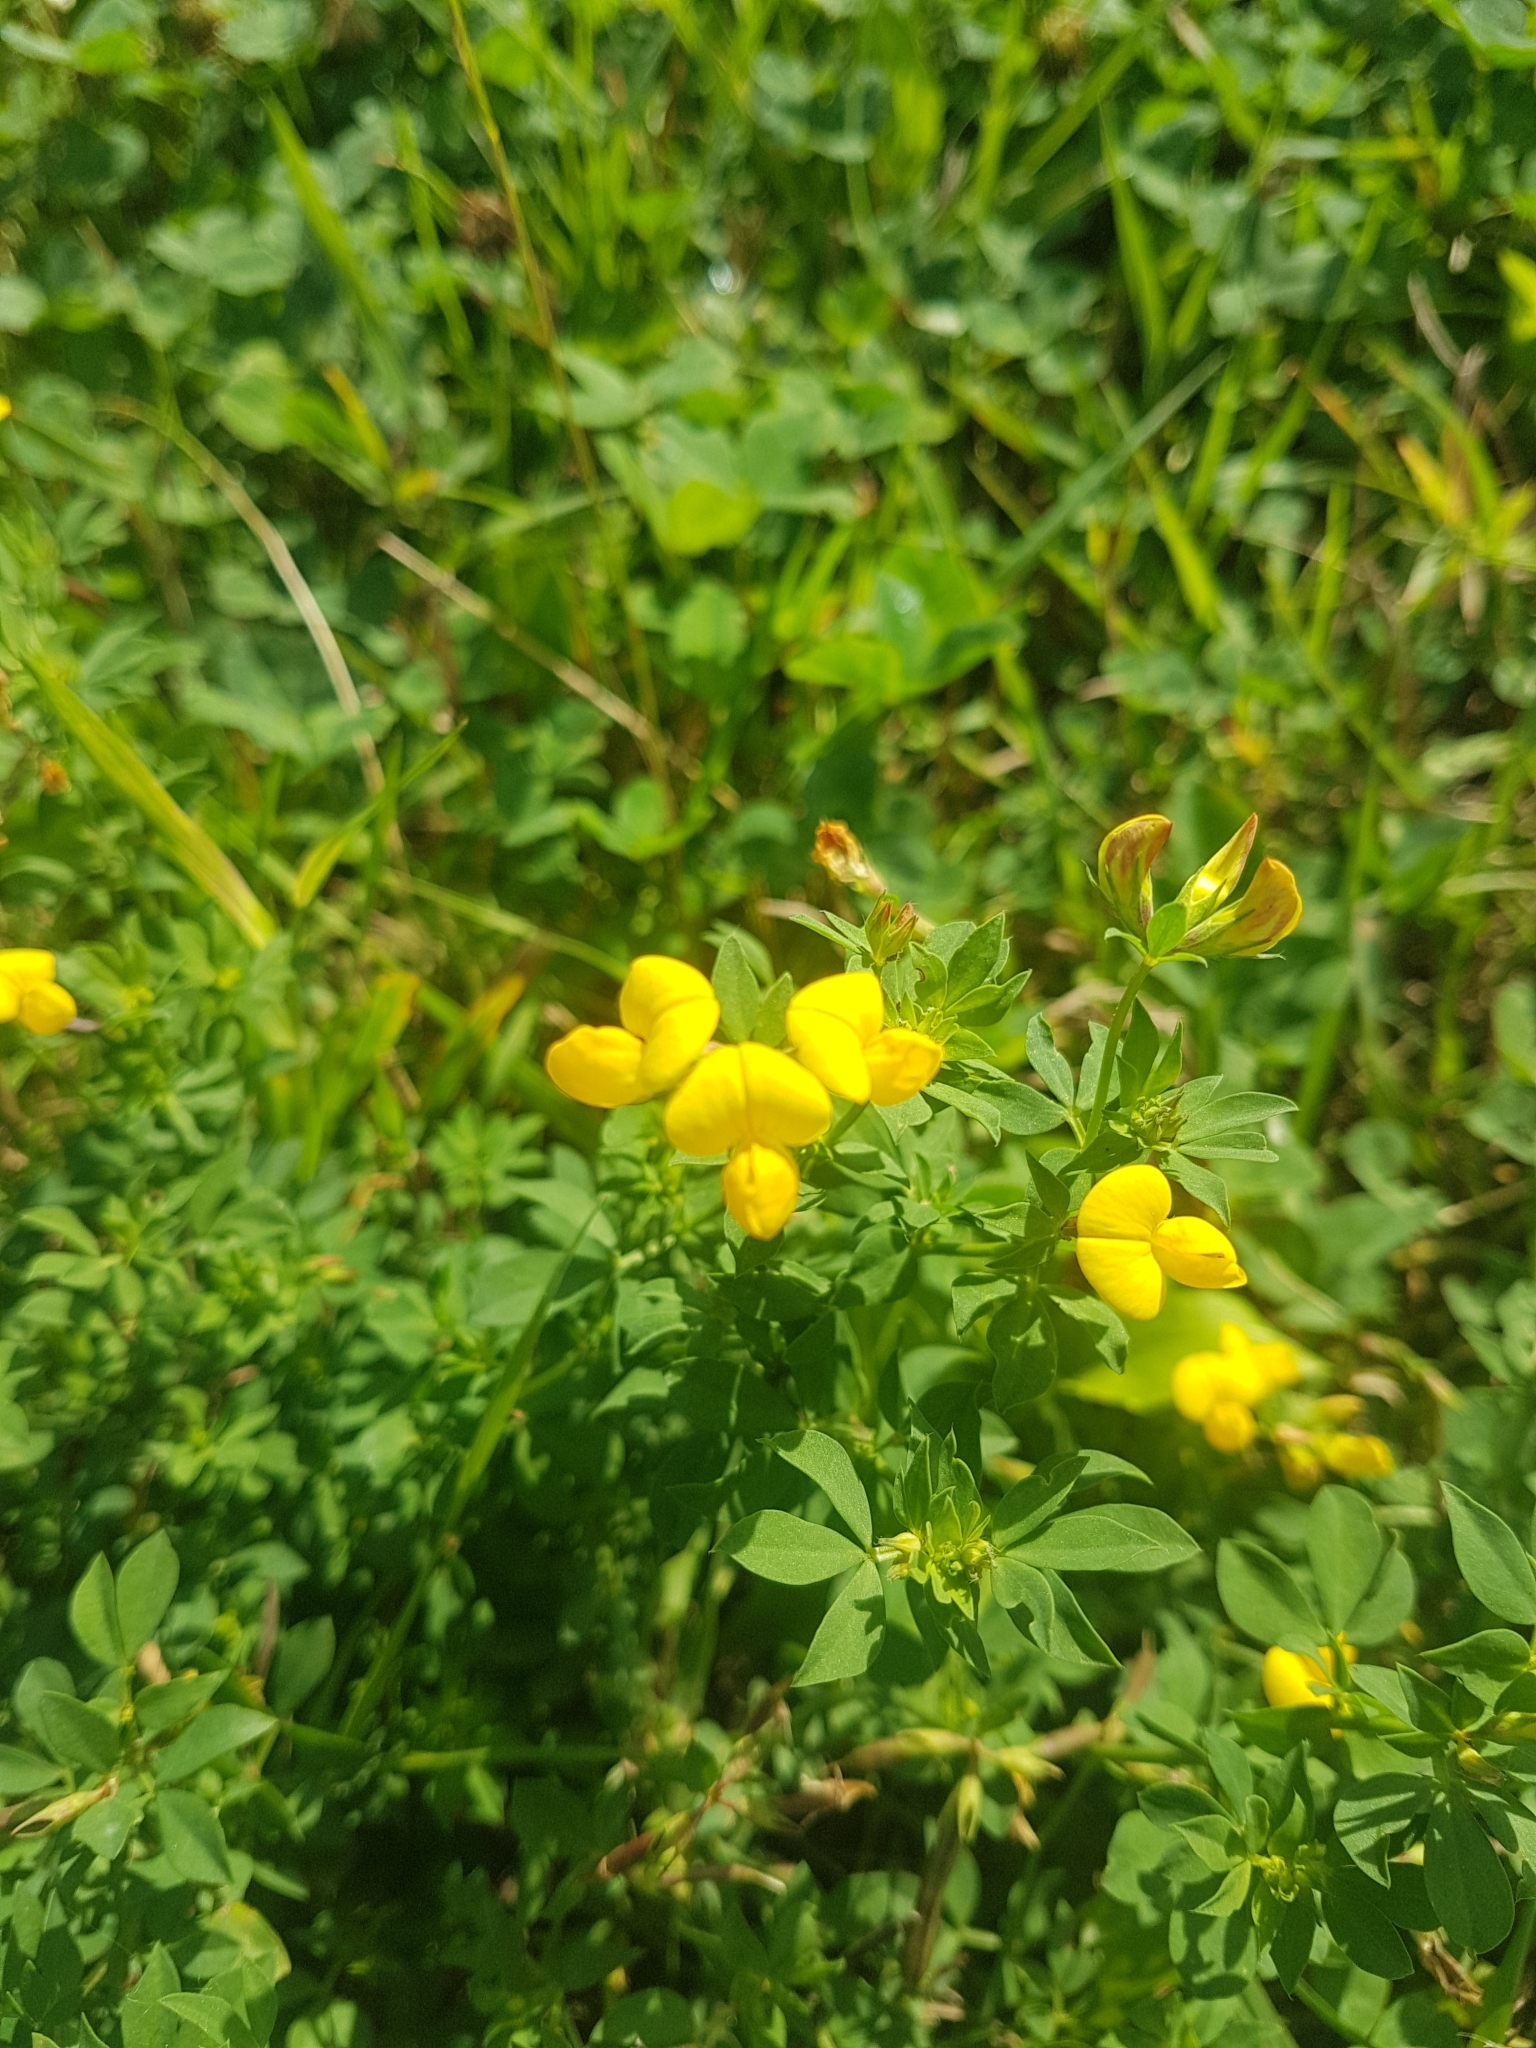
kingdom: Plantae
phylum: Tracheophyta
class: Magnoliopsida
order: Fabales
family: Fabaceae
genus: Lotus
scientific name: Lotus corniculatus
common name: Common bird's-foot-trefoil
